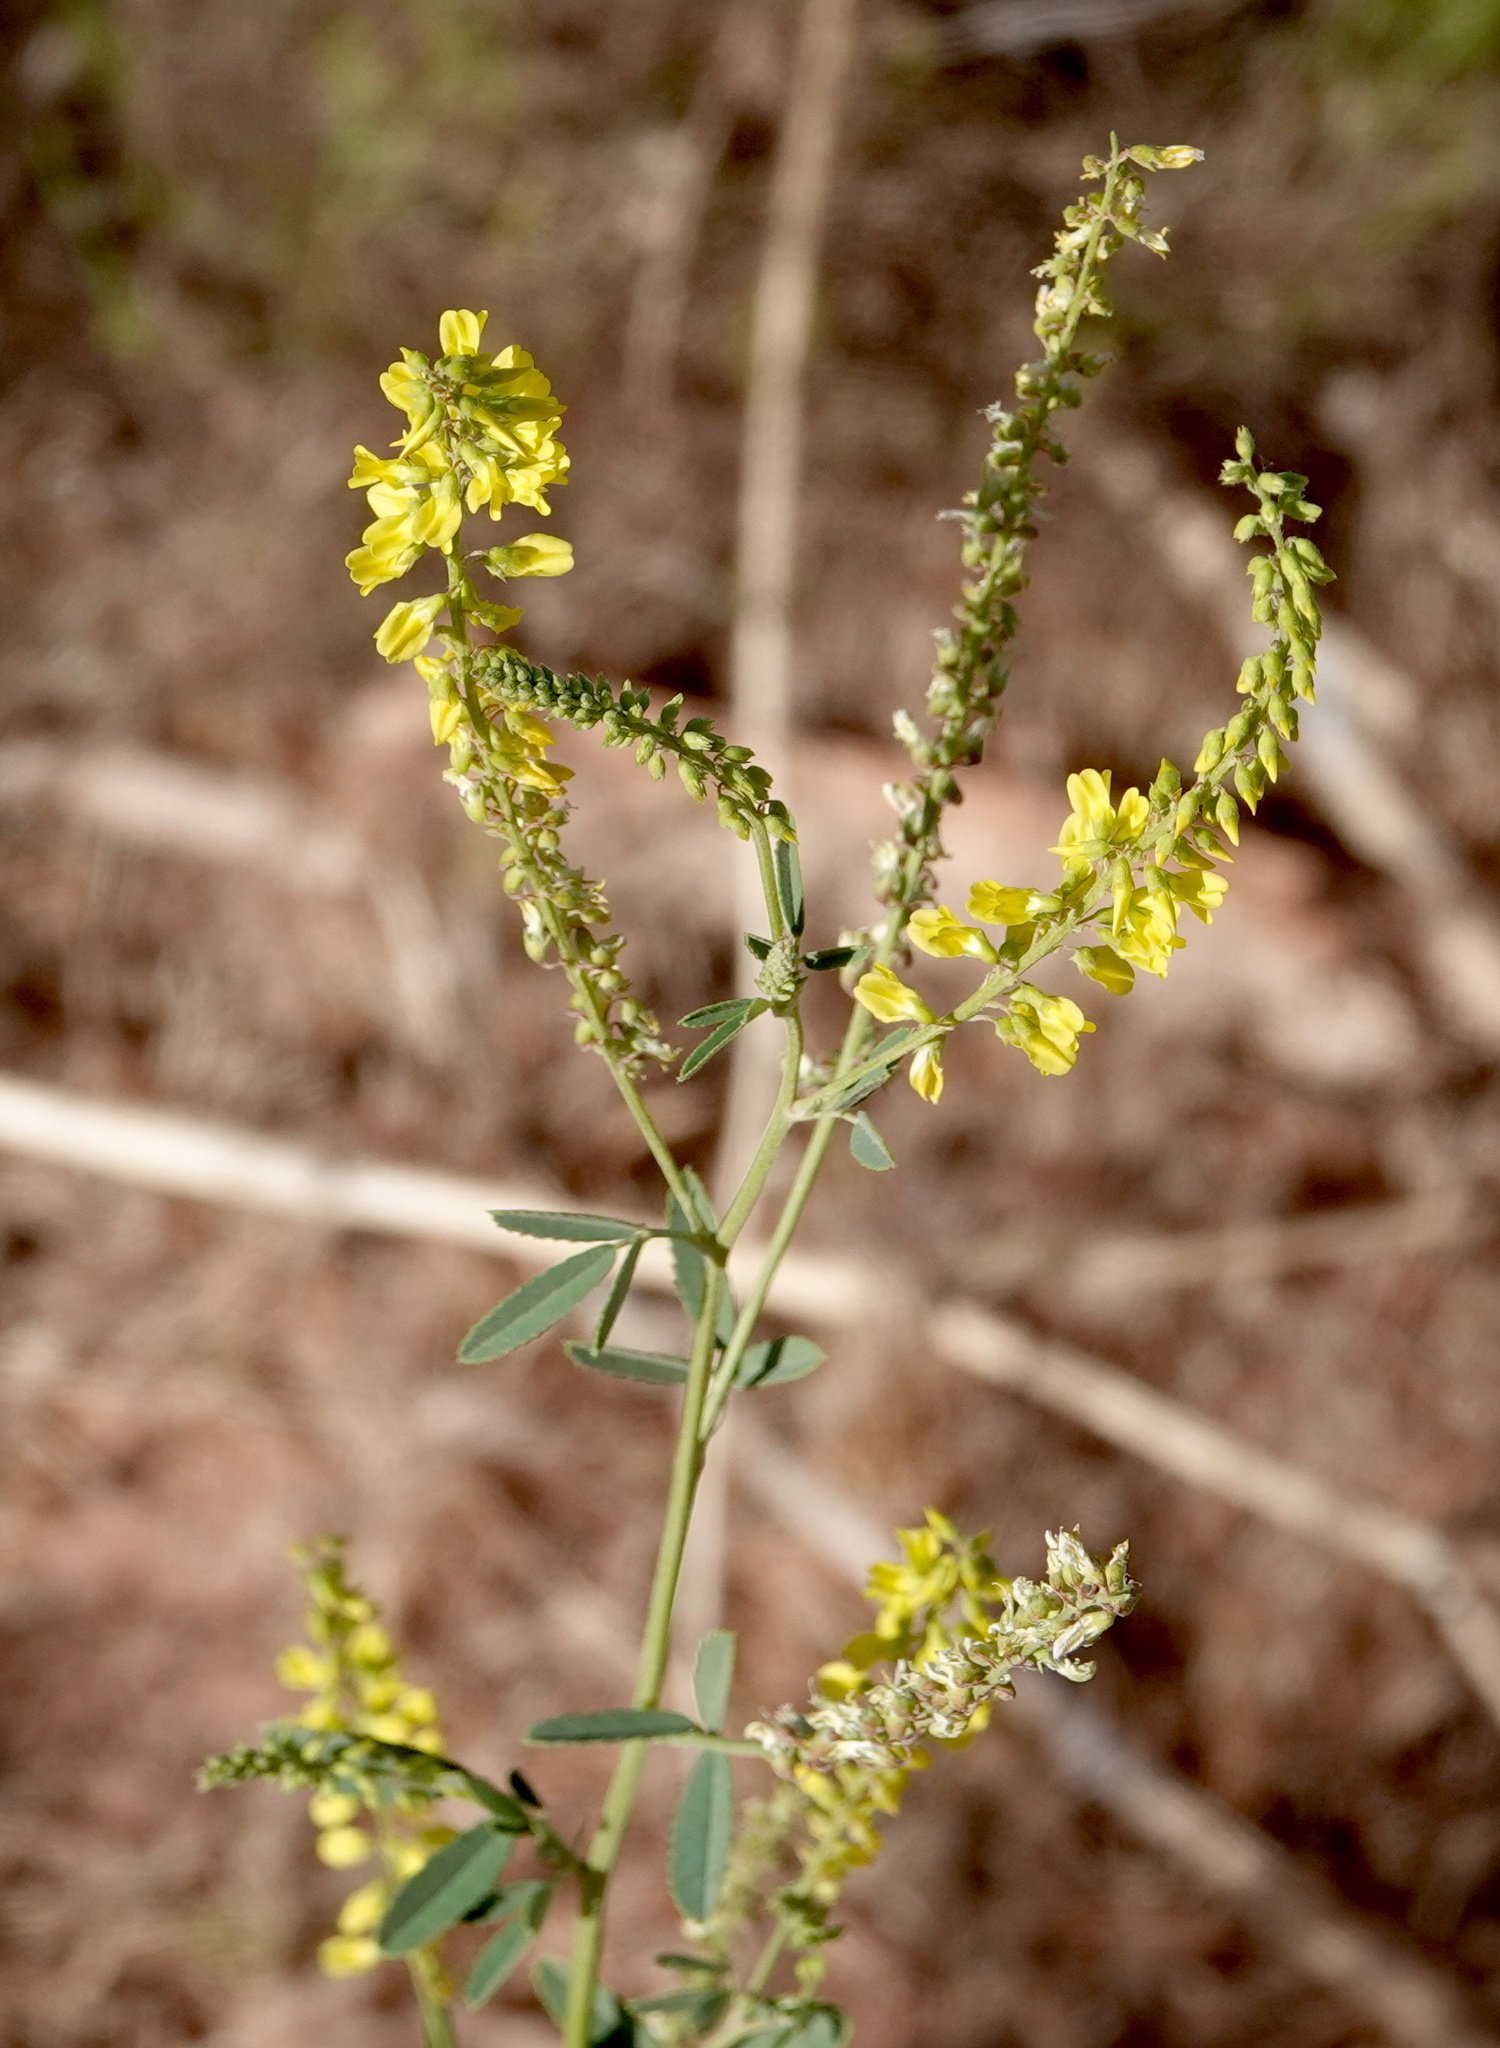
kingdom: Plantae
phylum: Tracheophyta
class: Magnoliopsida
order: Fabales
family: Fabaceae
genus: Melilotus
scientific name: Melilotus officinalis
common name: Sweetclover
